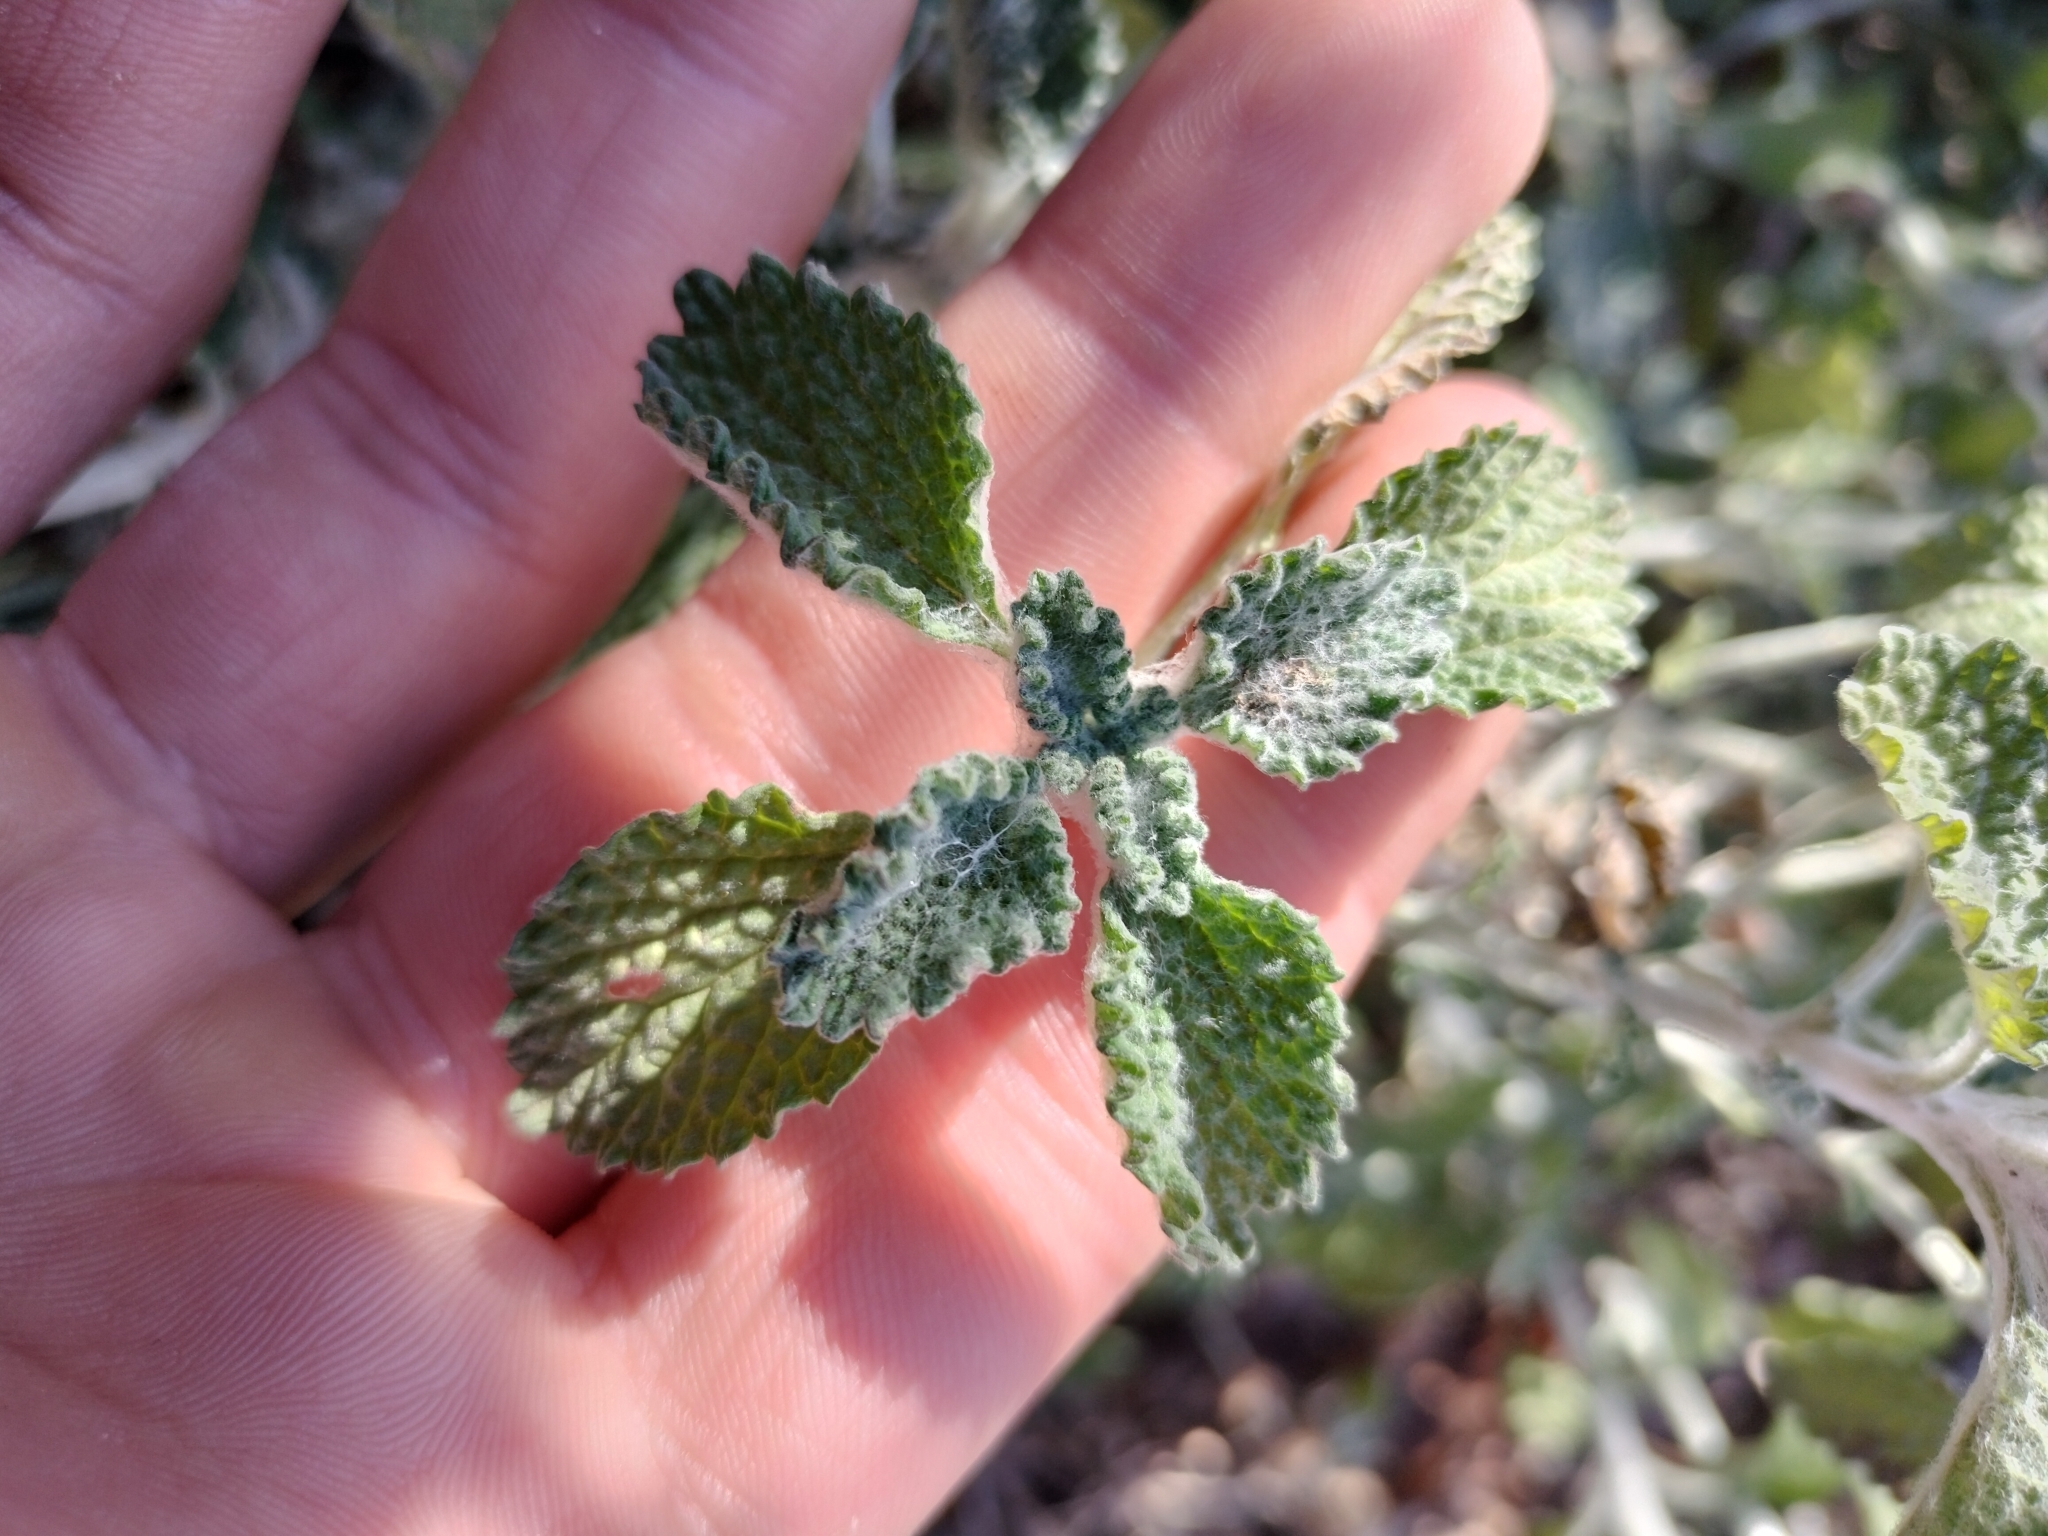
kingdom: Plantae
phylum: Tracheophyta
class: Magnoliopsida
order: Lamiales
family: Lamiaceae
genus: Marrubium
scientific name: Marrubium vulgare
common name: Horehound
